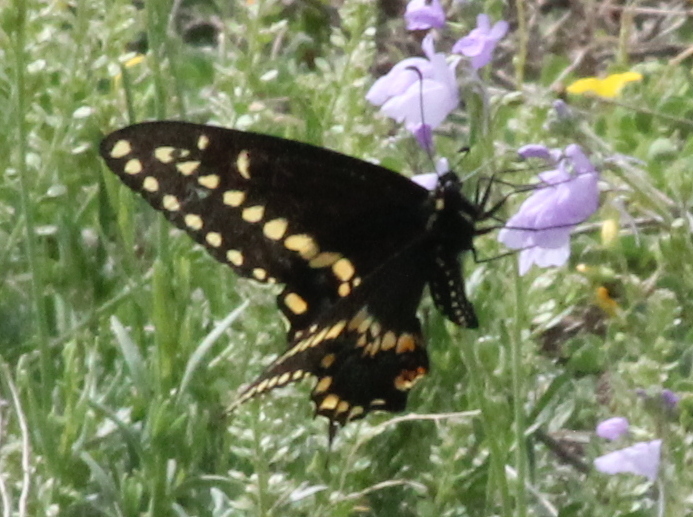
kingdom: Animalia
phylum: Arthropoda
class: Insecta
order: Lepidoptera
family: Papilionidae
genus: Papilio
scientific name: Papilio polyxenes
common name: Black swallowtail
